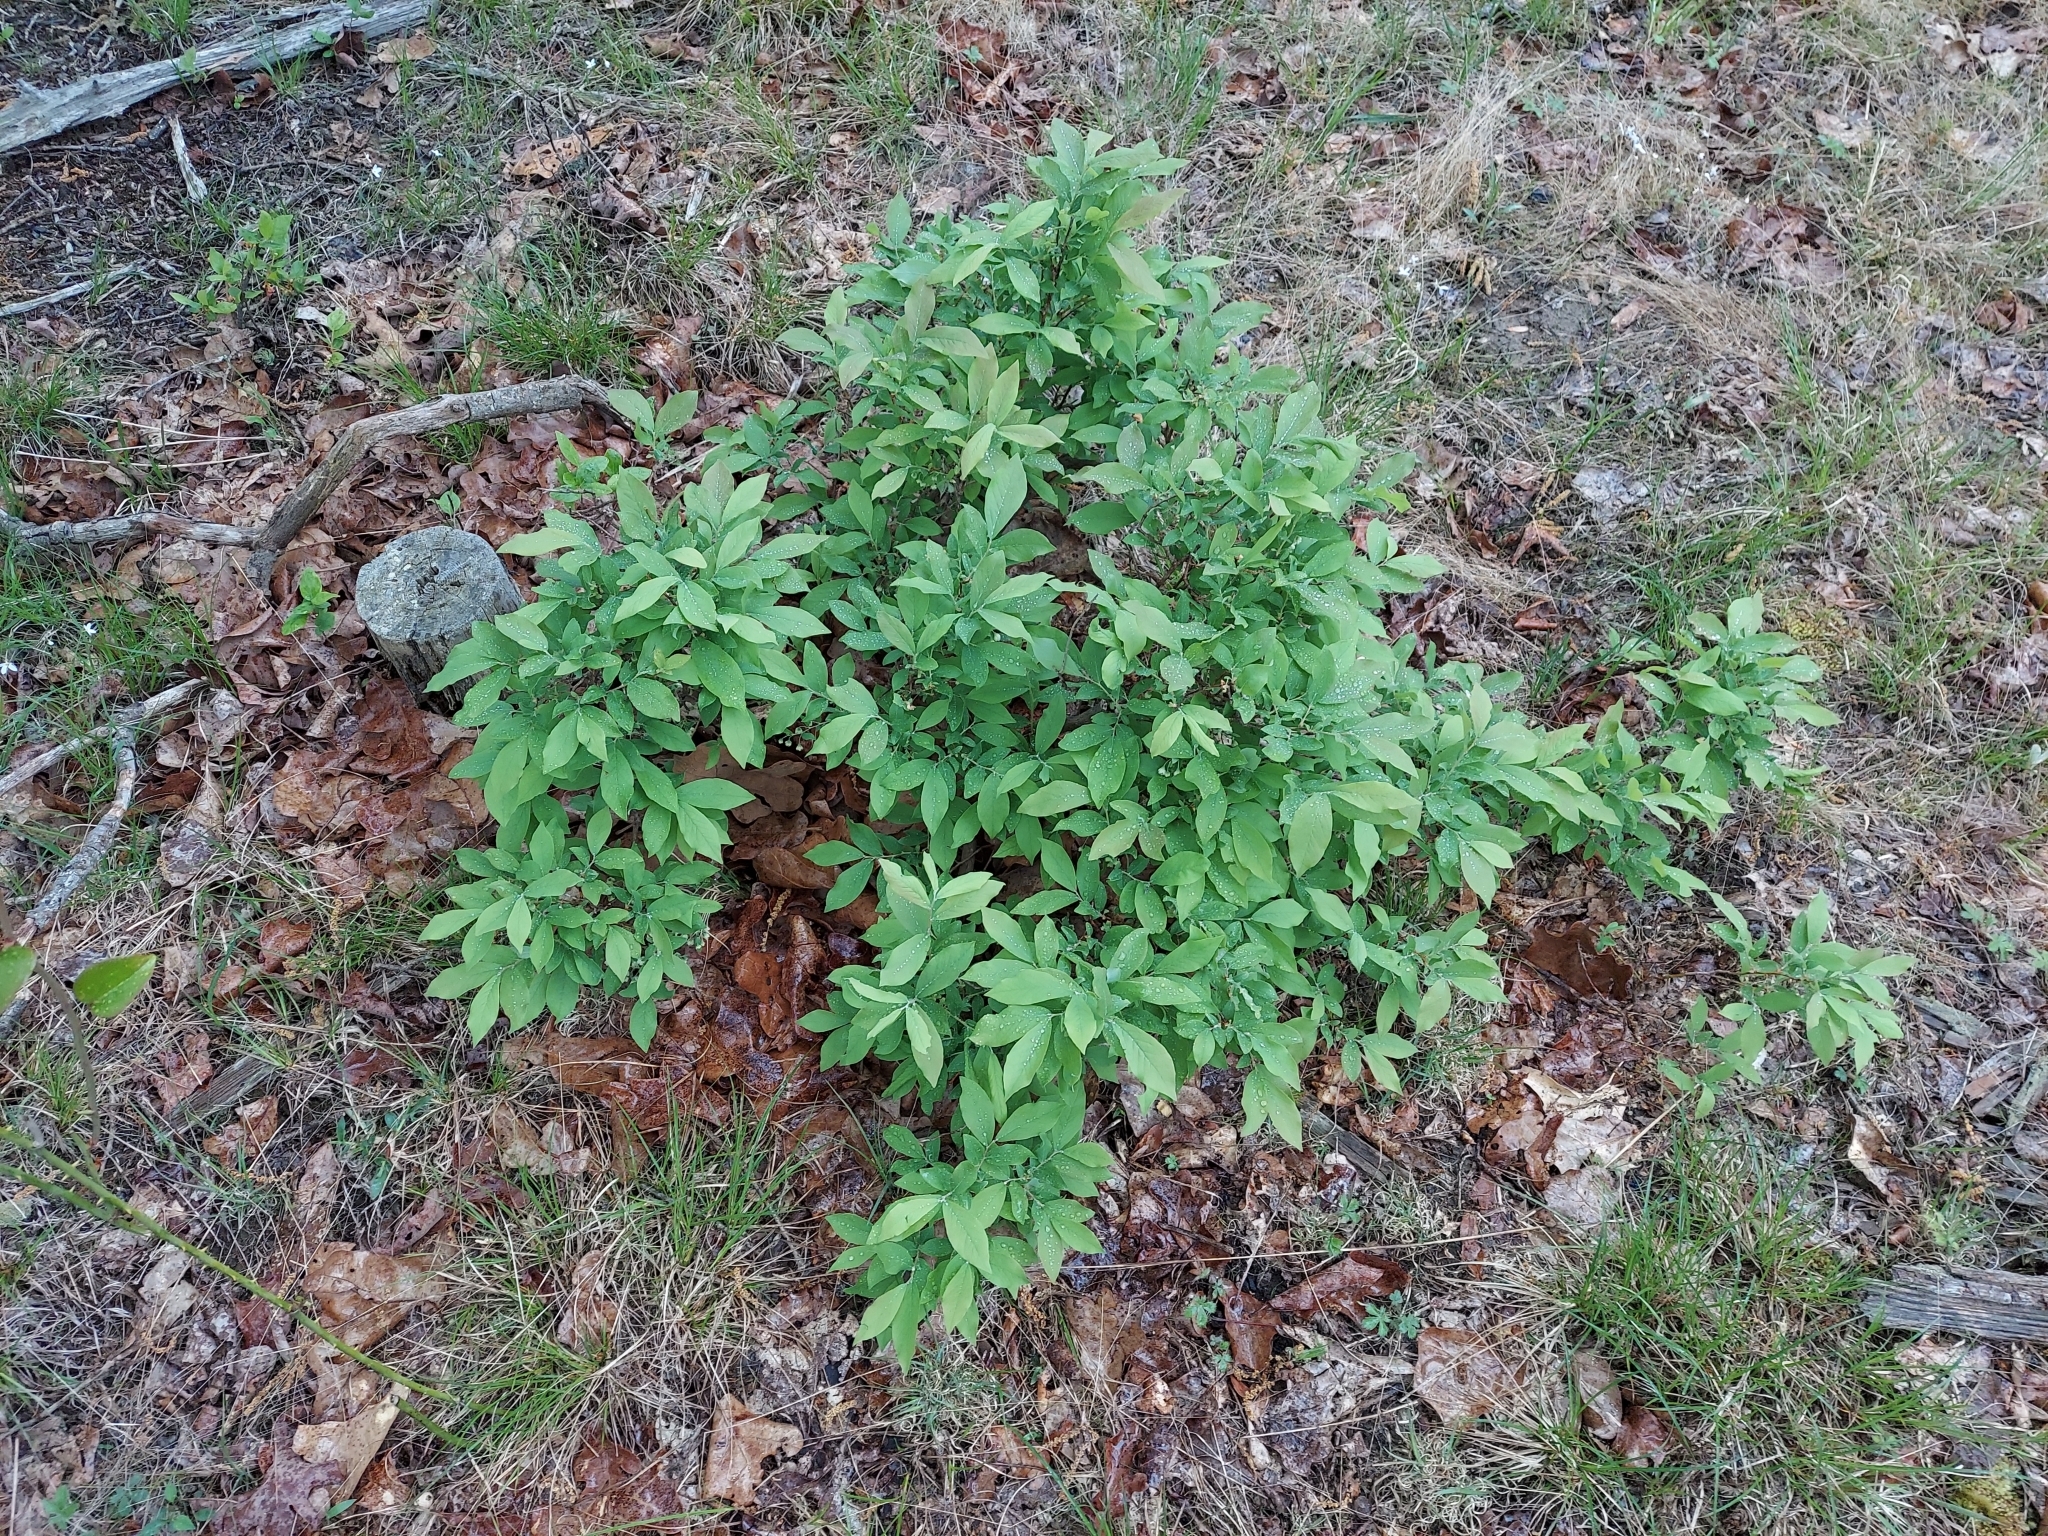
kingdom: Plantae
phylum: Tracheophyta
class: Magnoliopsida
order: Ericales
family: Ericaceae
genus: Vaccinium
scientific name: Vaccinium stamineum
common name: Deerberry
